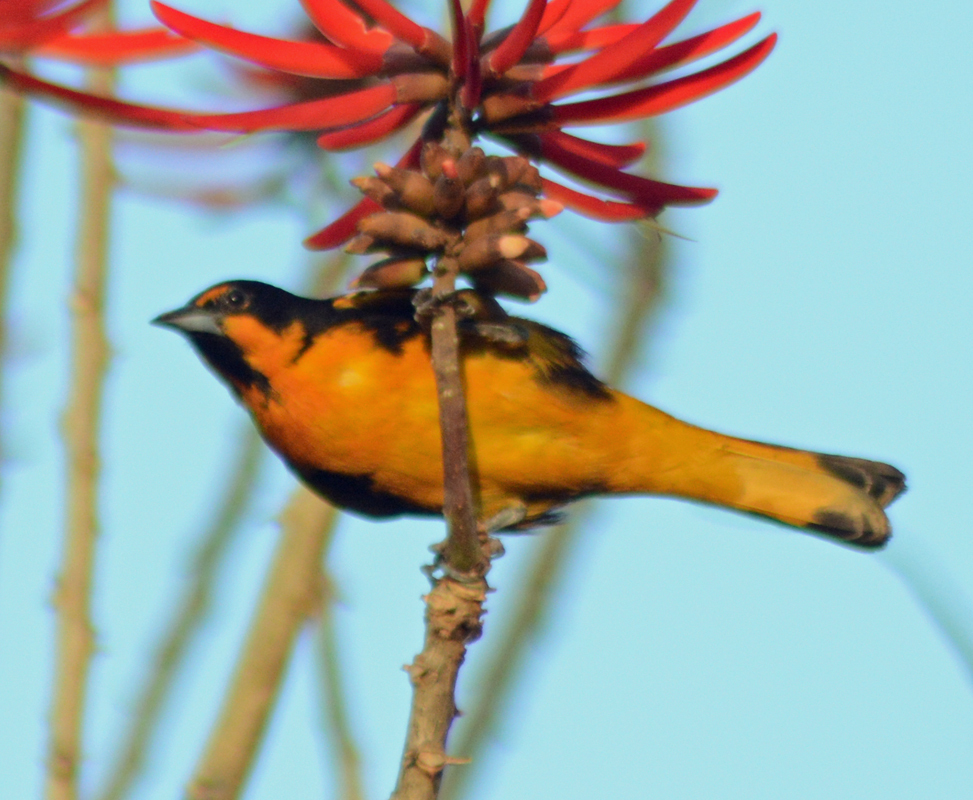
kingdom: Animalia
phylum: Chordata
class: Aves
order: Passeriformes
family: Icteridae
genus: Icterus
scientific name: Icterus abeillei
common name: Black-backed oriole
